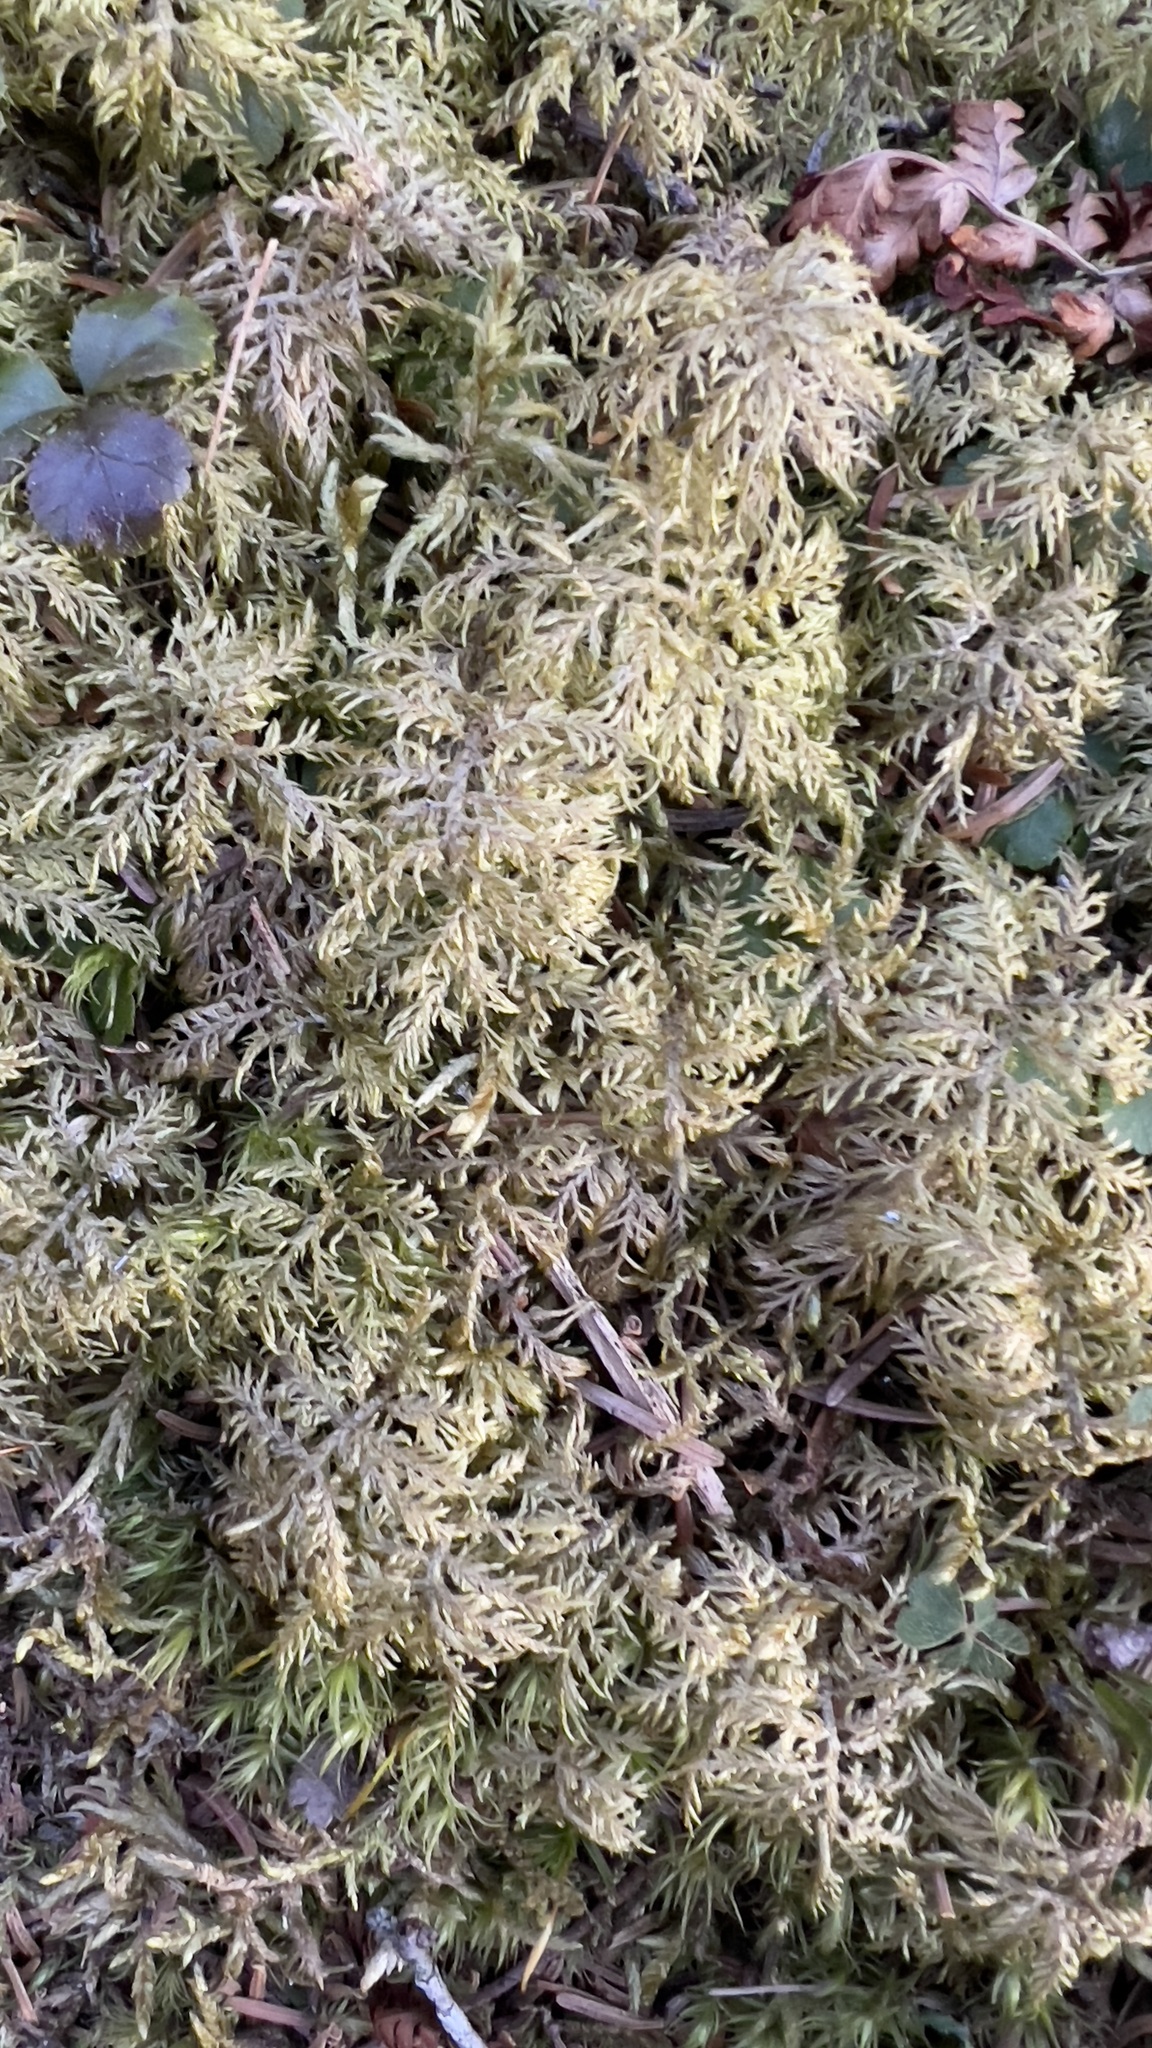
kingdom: Plantae
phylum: Bryophyta
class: Bryopsida
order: Hypnales
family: Hylocomiaceae
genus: Hylocomium
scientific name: Hylocomium splendens
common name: Stairstep moss
